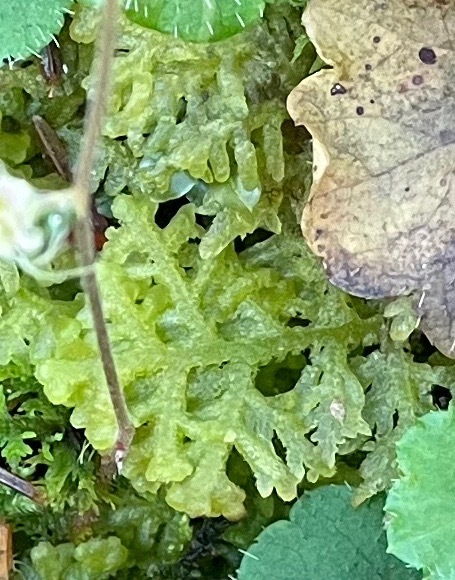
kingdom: Plantae
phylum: Marchantiophyta
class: Jungermanniopsida
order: Jungermanniales
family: Trichocoleaceae
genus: Trichocolea
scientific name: Trichocolea tomentella
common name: Woolly liverwort
